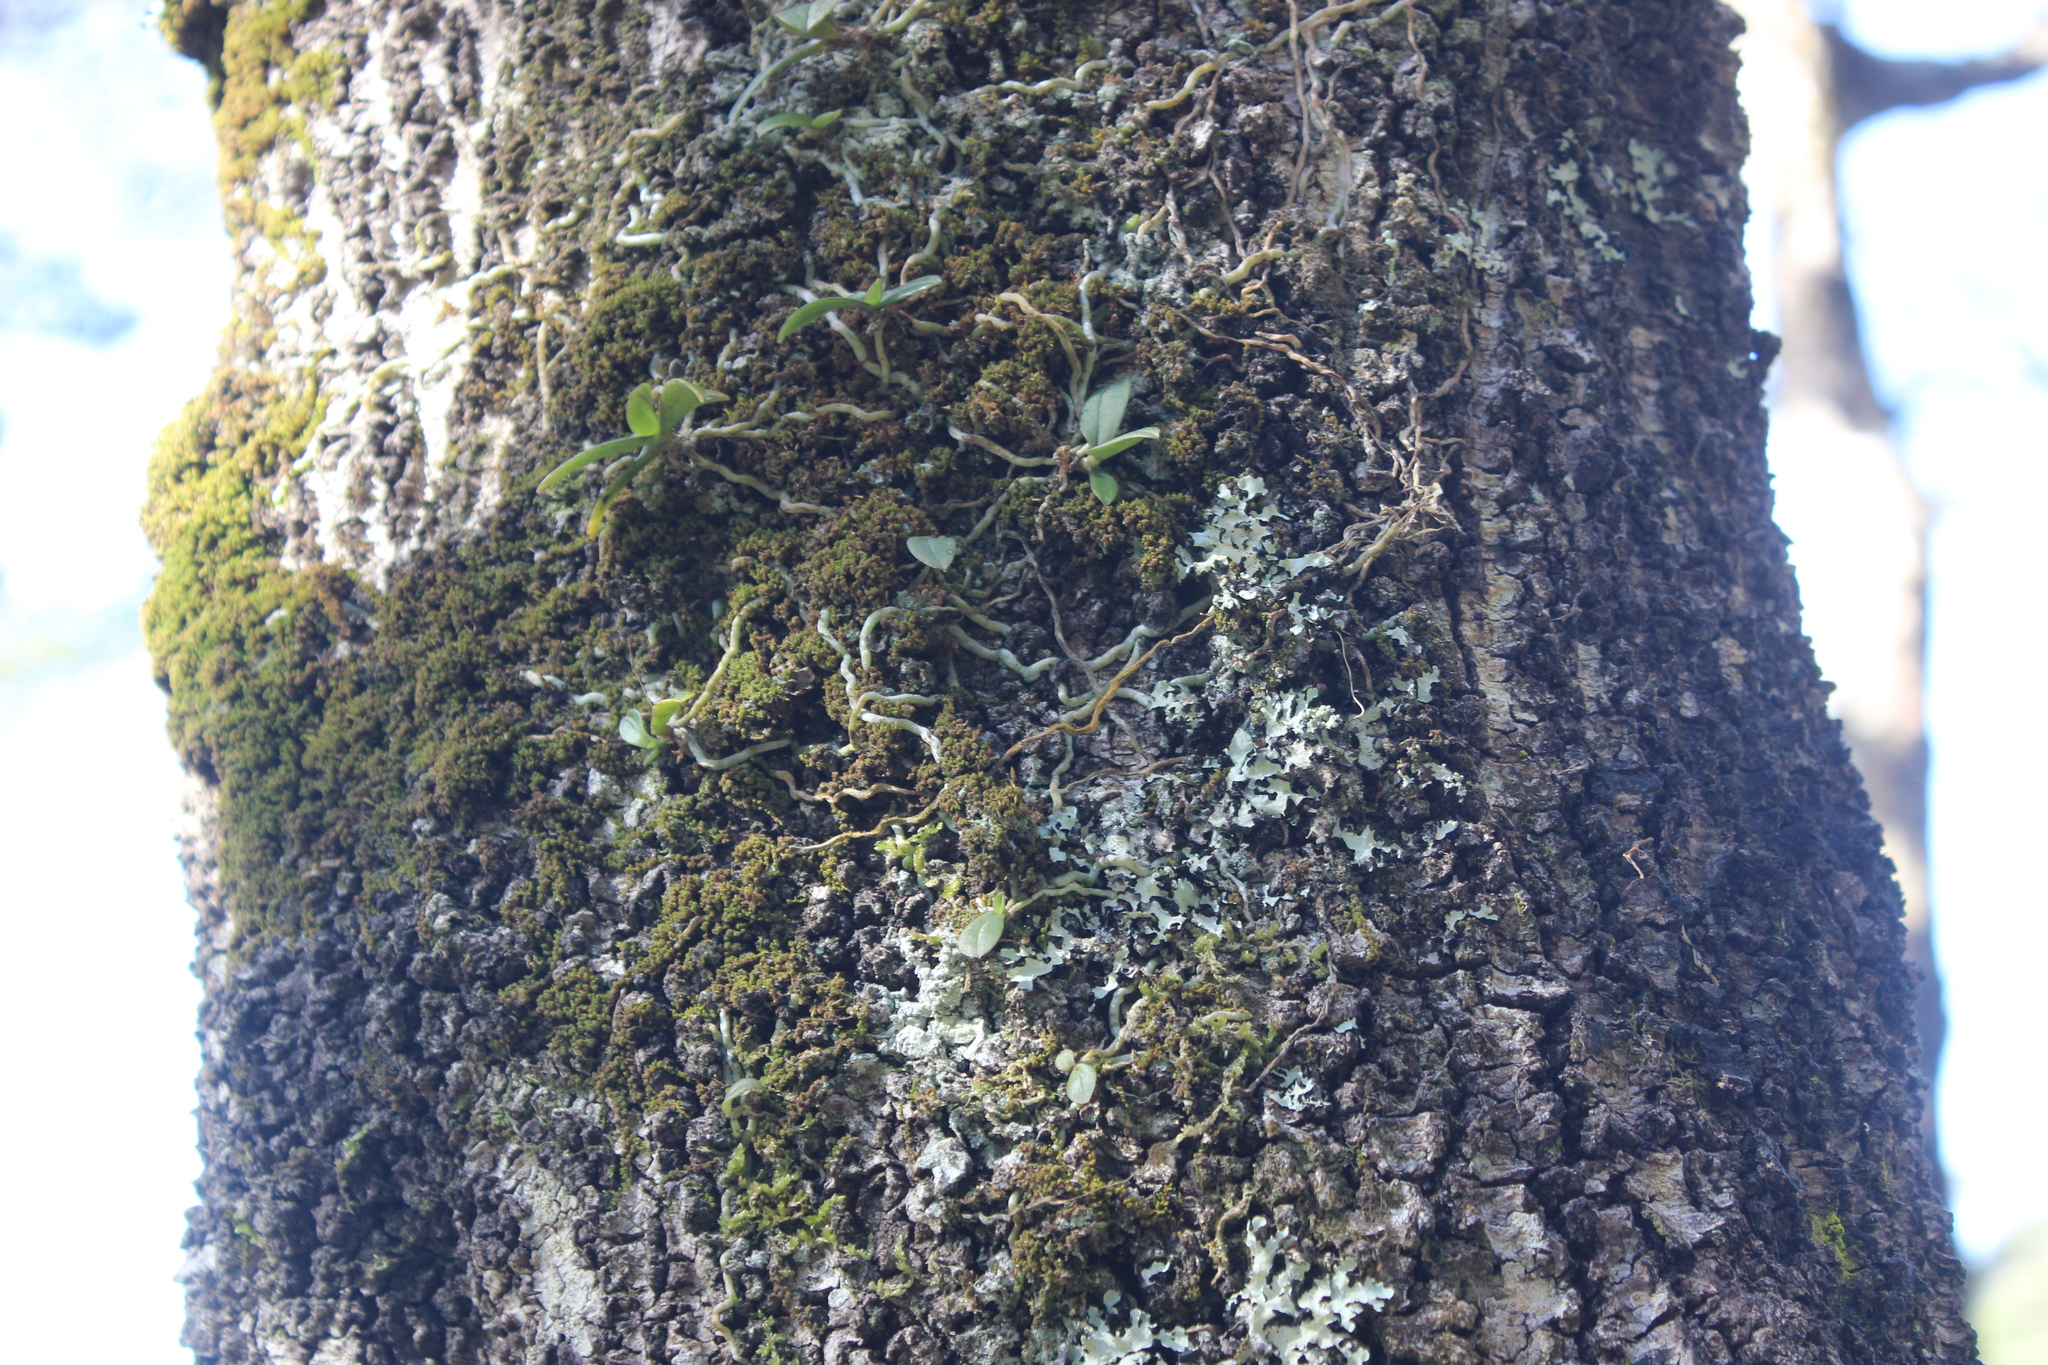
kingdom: Plantae
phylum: Tracheophyta
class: Liliopsida
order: Asparagales
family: Orchidaceae
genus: Drymoanthus
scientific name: Drymoanthus adversus
